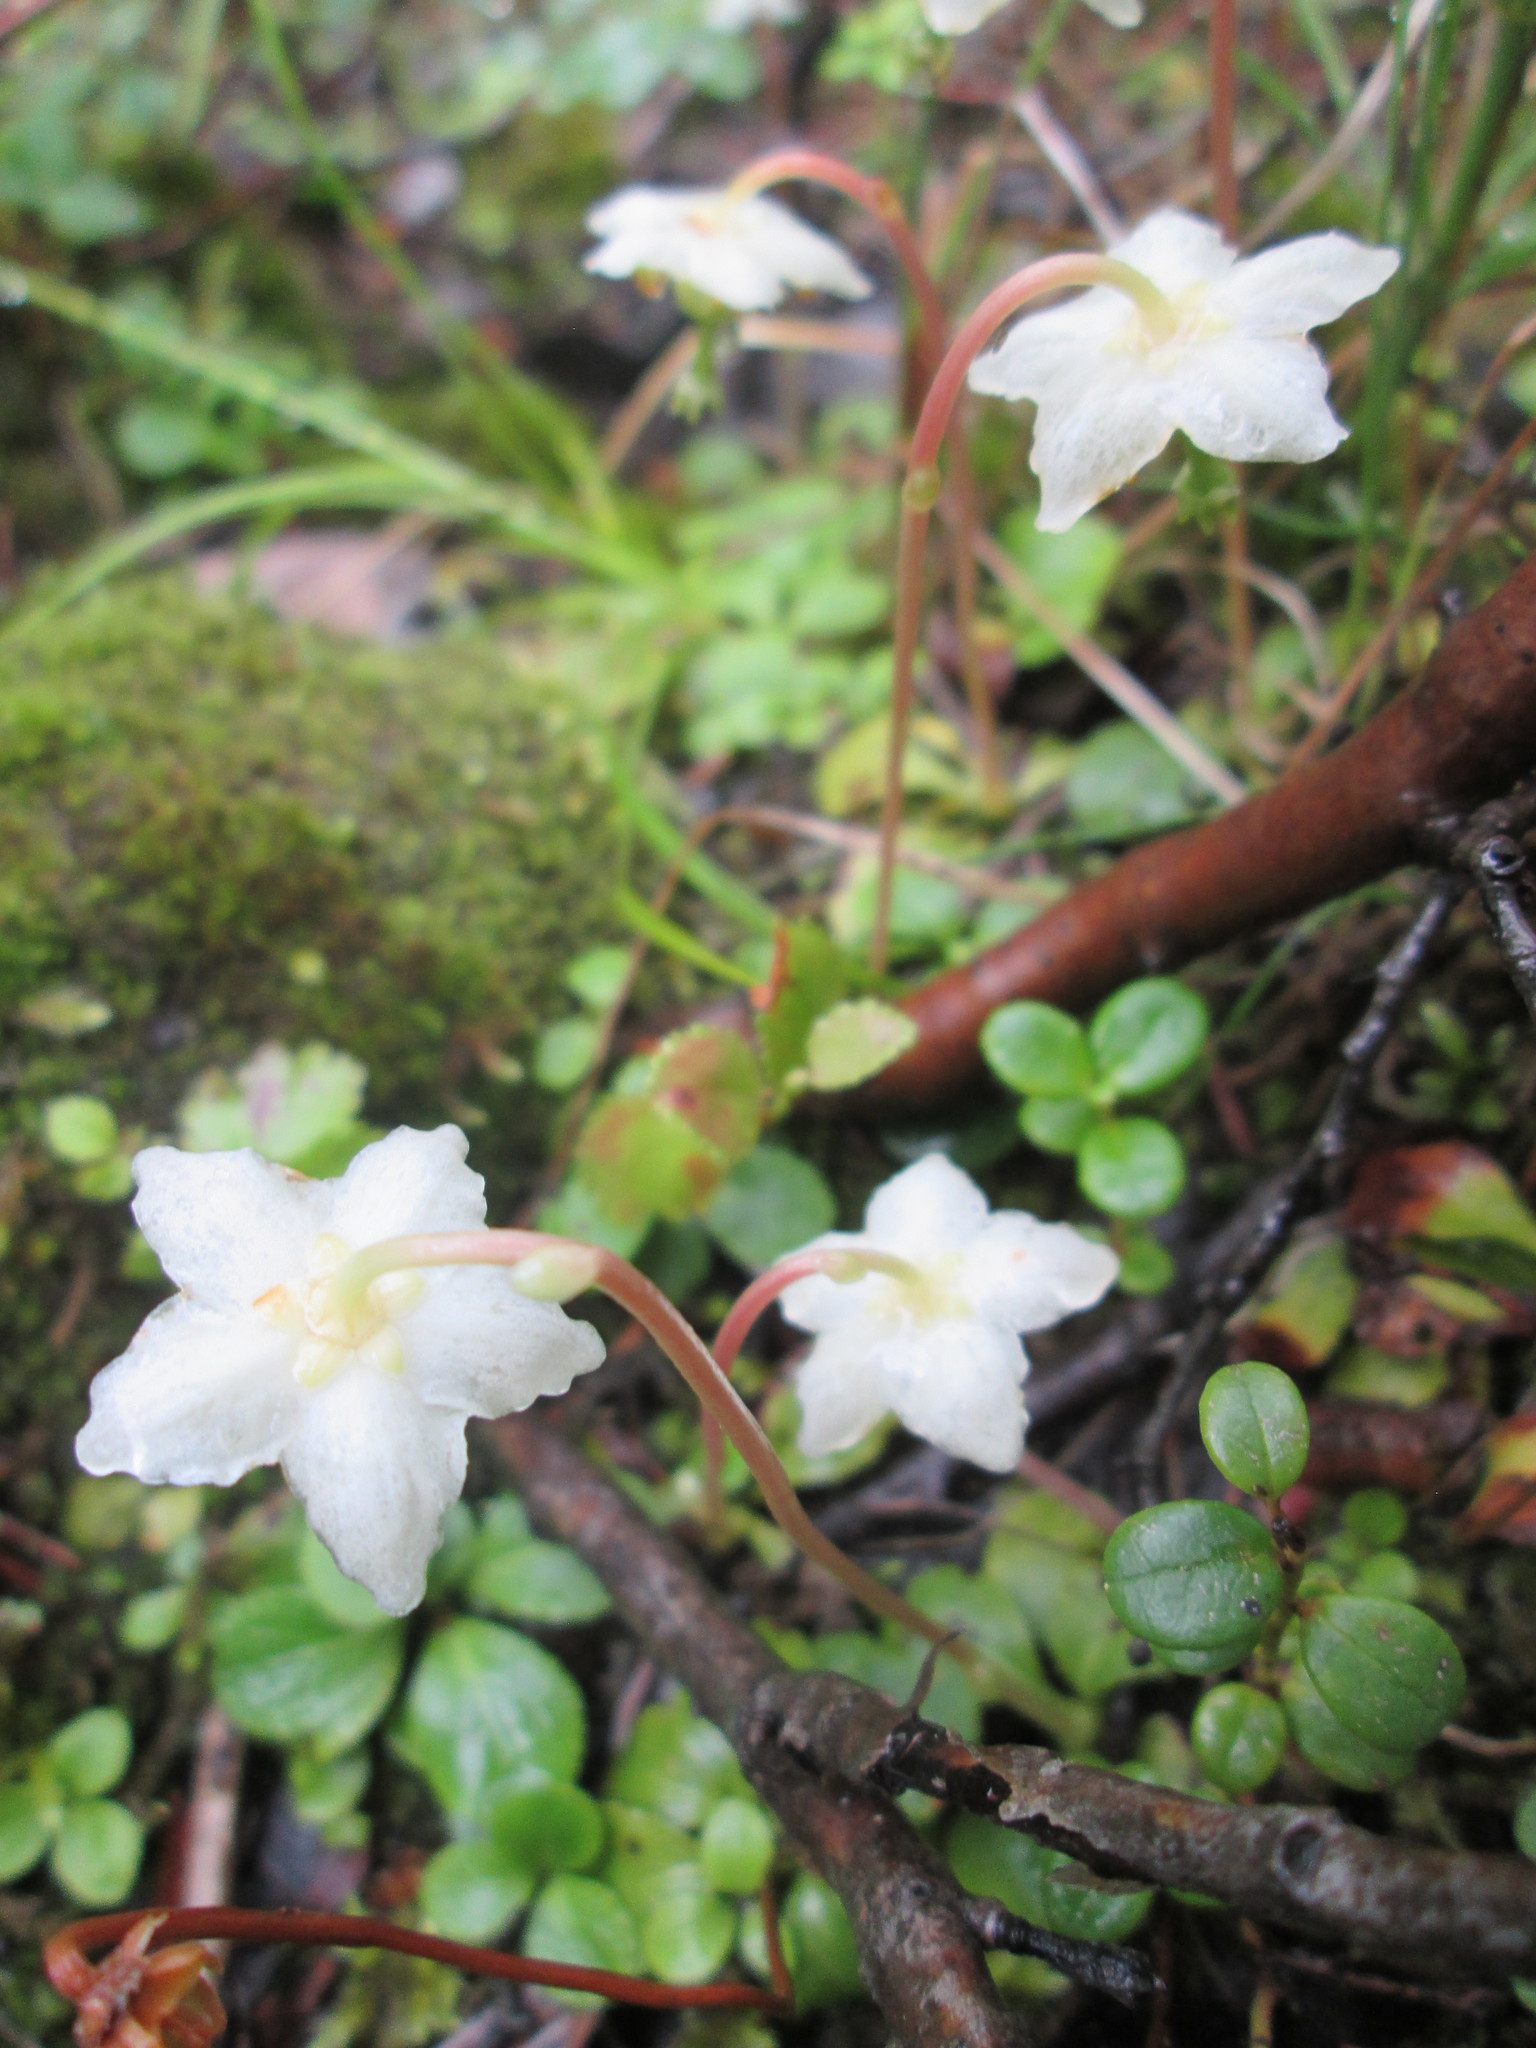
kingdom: Plantae
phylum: Tracheophyta
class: Magnoliopsida
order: Ericales
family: Ericaceae
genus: Moneses
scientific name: Moneses uniflora
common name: One-flowered wintergreen
